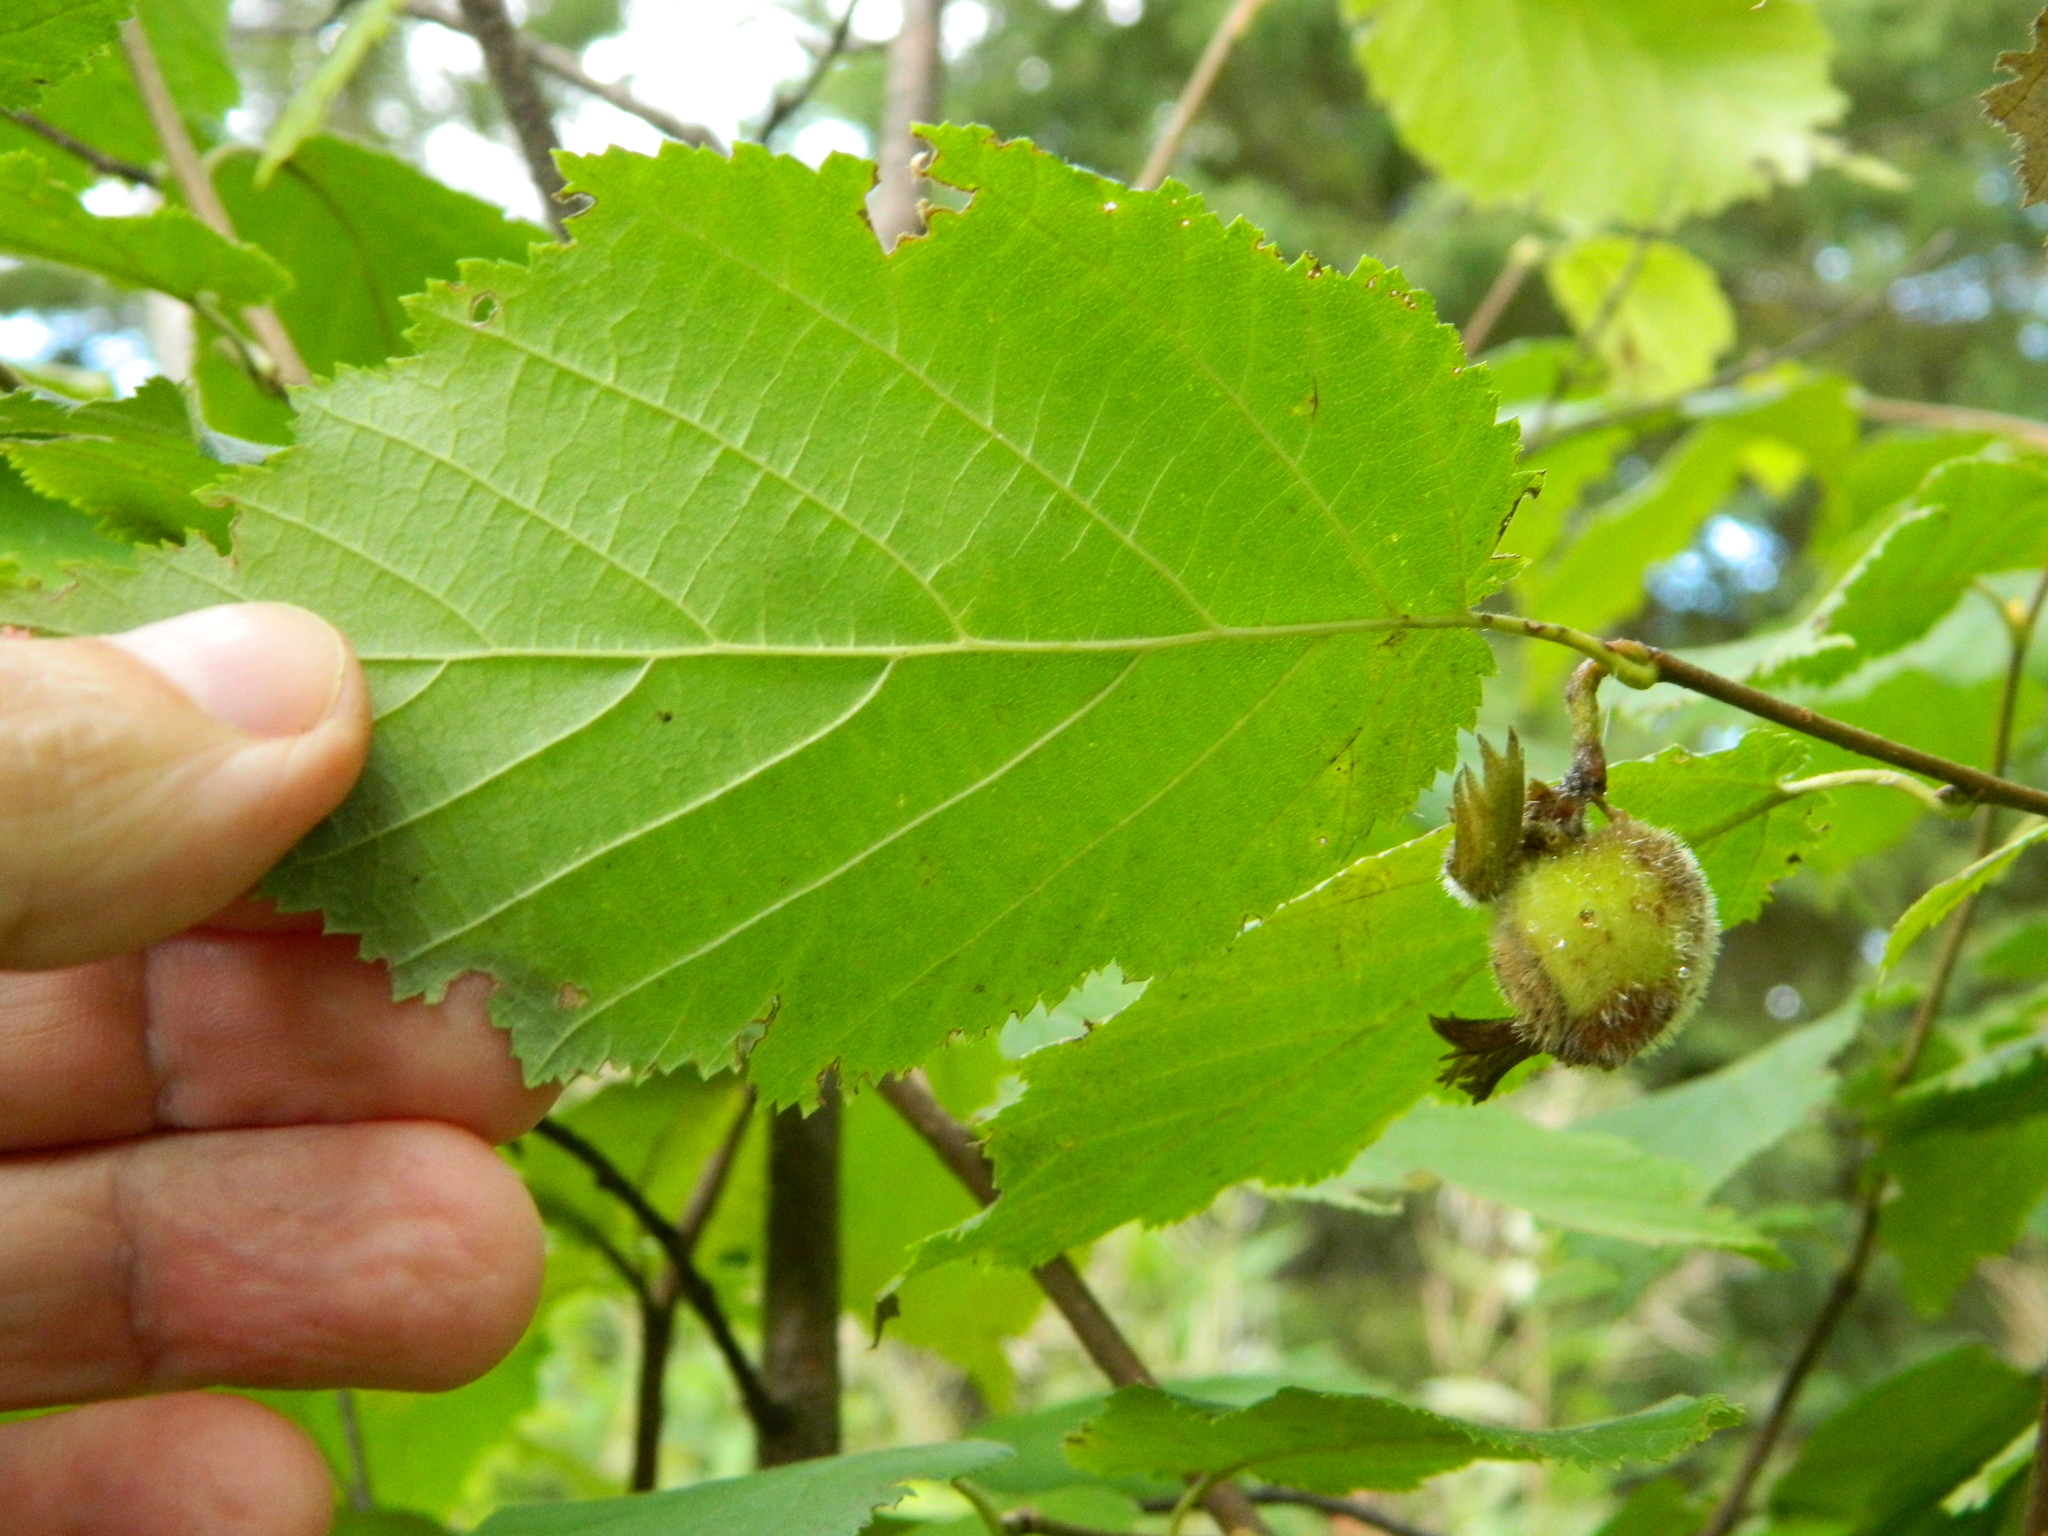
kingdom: Plantae
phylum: Tracheophyta
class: Magnoliopsida
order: Fagales
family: Betulaceae
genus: Corylus
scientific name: Corylus cornuta
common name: Beaked hazel
